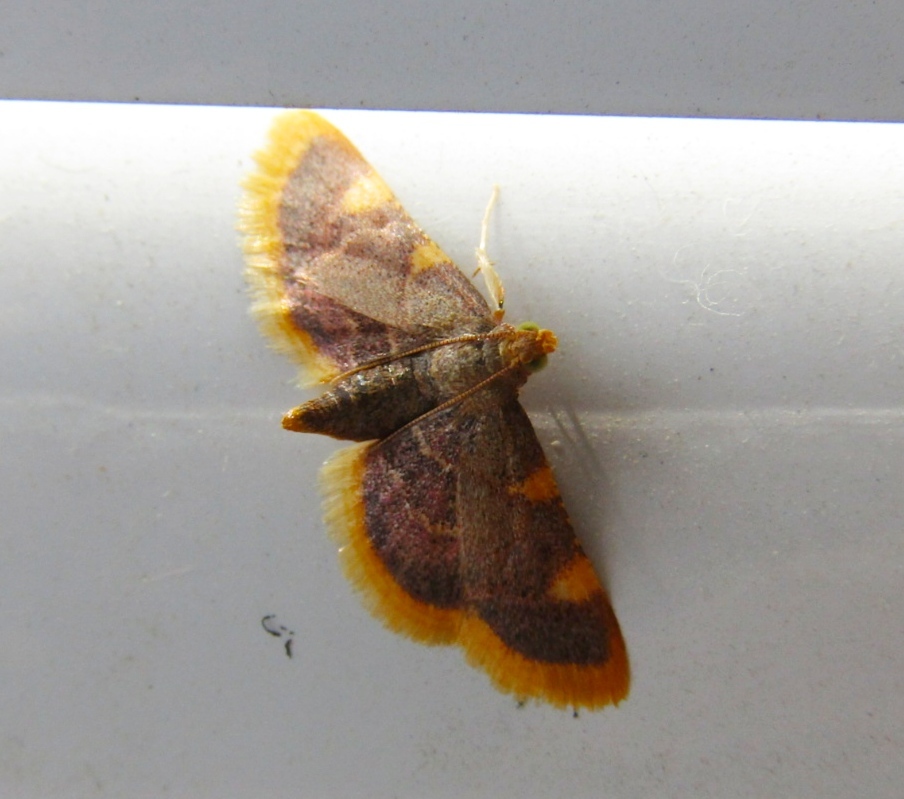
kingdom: Animalia
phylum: Arthropoda
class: Insecta
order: Lepidoptera
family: Pyralidae
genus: Hypsopygia
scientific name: Hypsopygia costalis
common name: Gold triangle
